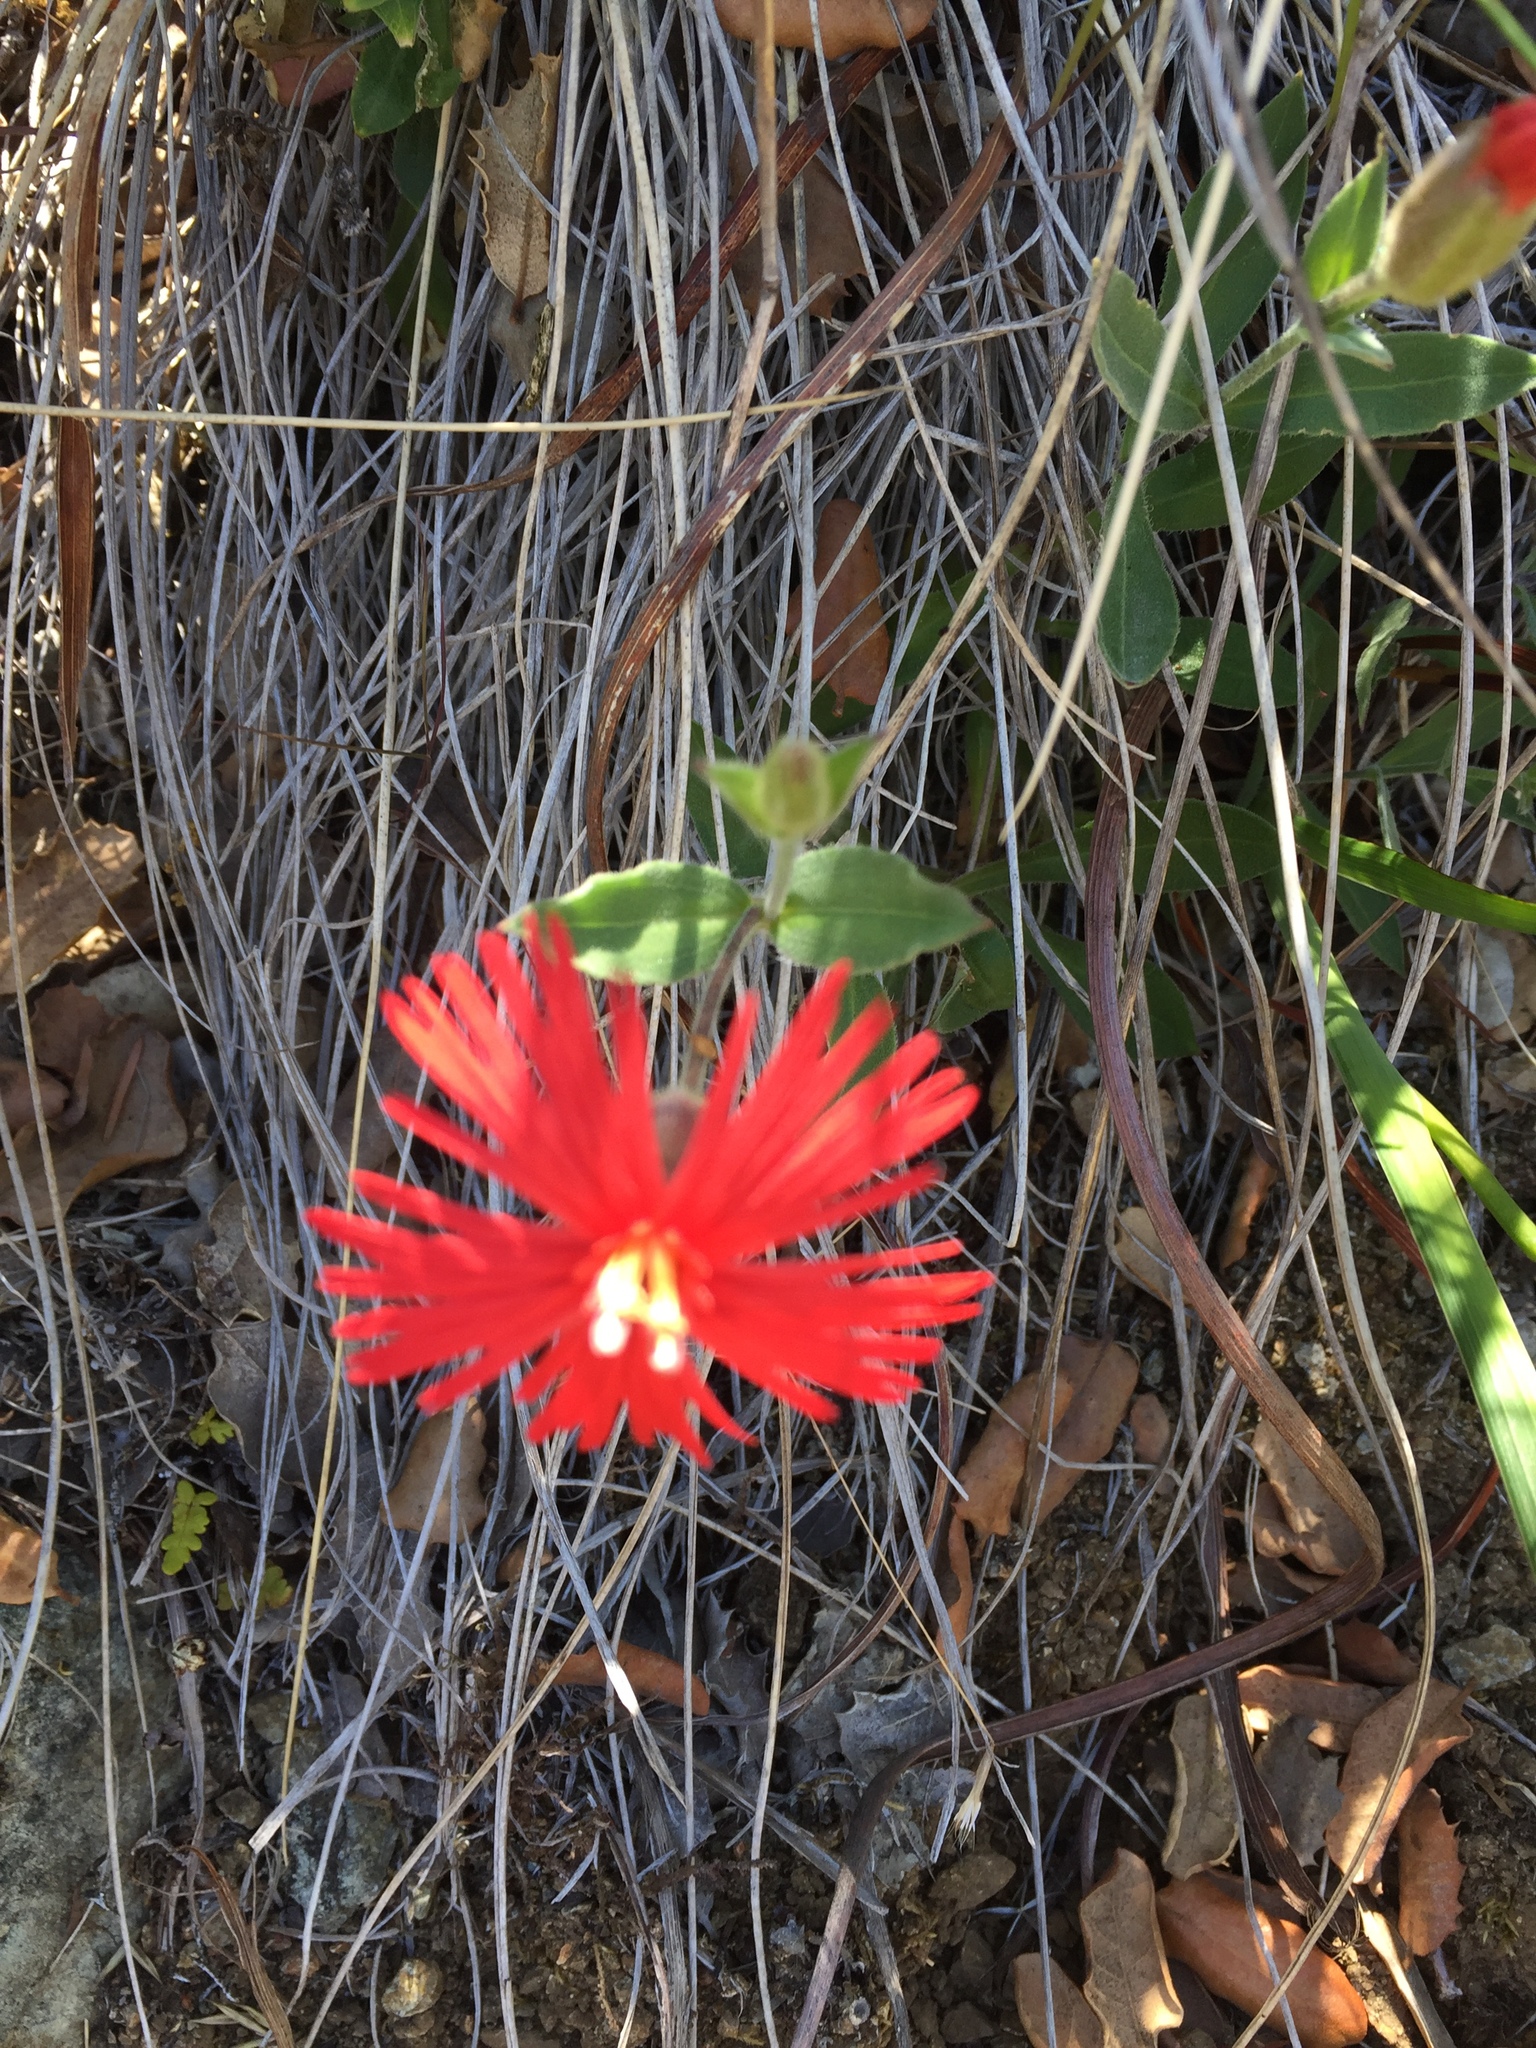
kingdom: Plantae
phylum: Tracheophyta
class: Magnoliopsida
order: Caryophyllales
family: Caryophyllaceae
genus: Silene
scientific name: Silene laciniata
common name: Indian-pink
